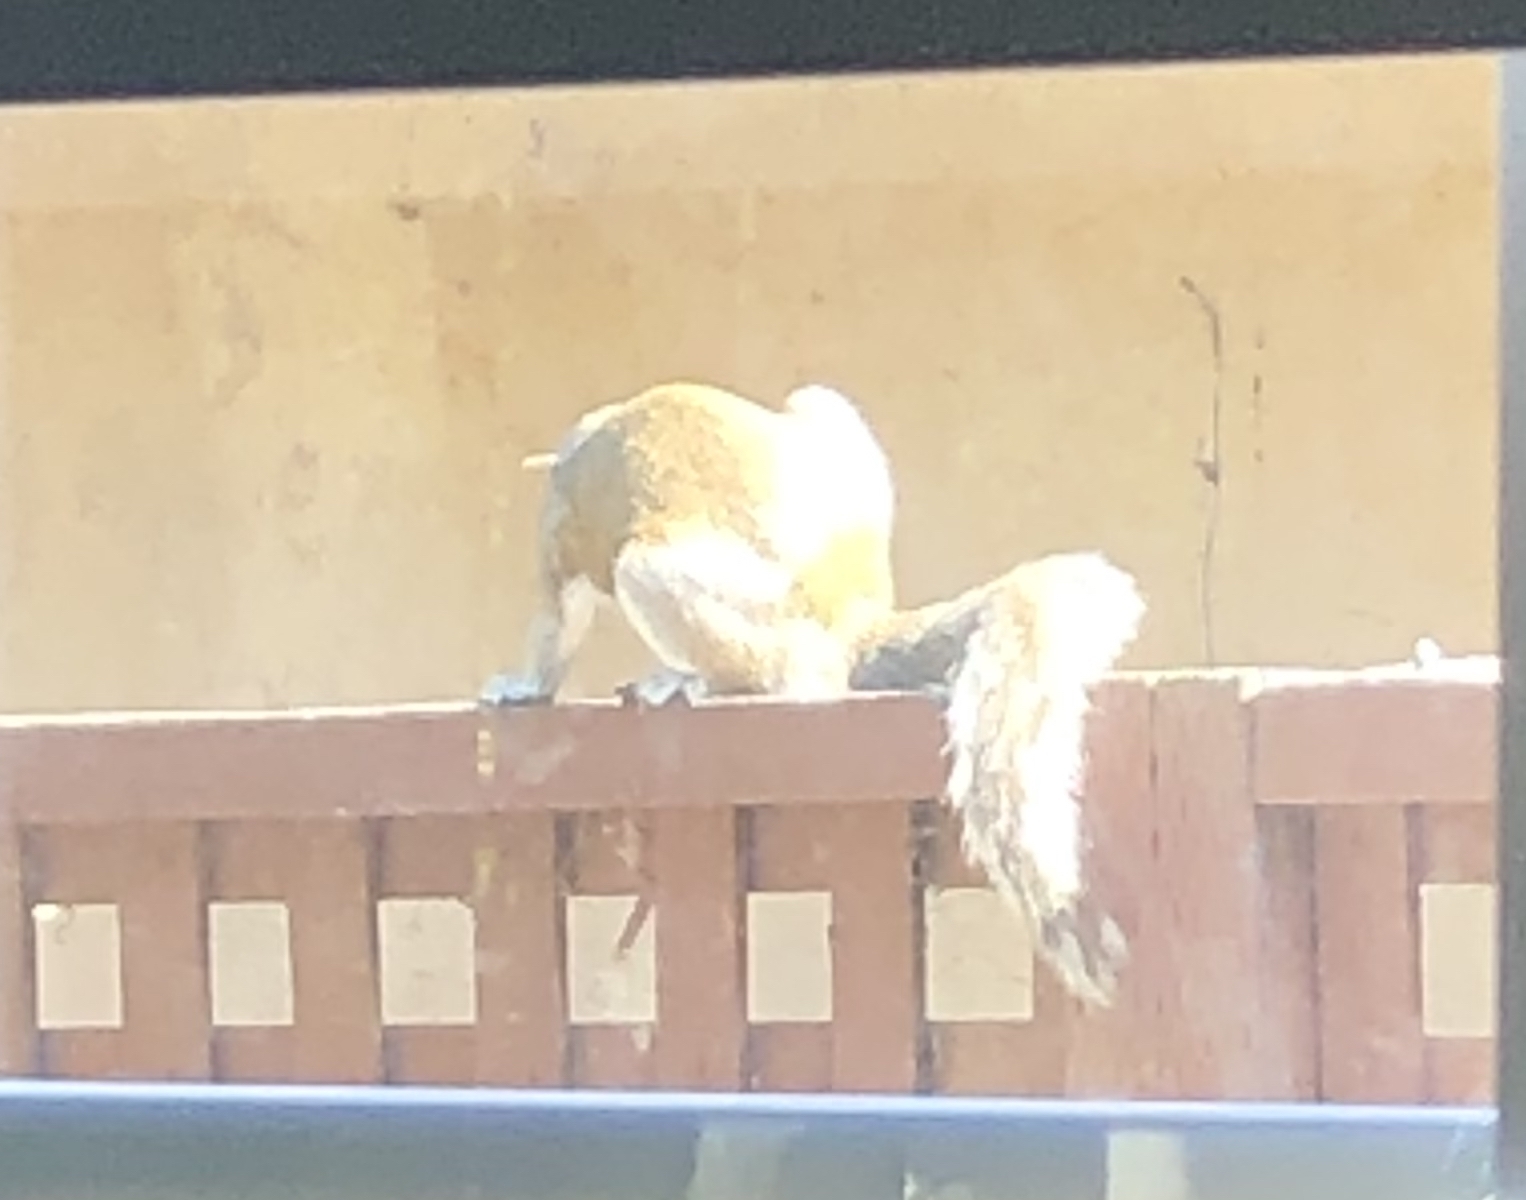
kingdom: Animalia
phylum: Chordata
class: Mammalia
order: Rodentia
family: Sciuridae
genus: Sciurus
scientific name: Sciurus carolinensis
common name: Eastern gray squirrel
